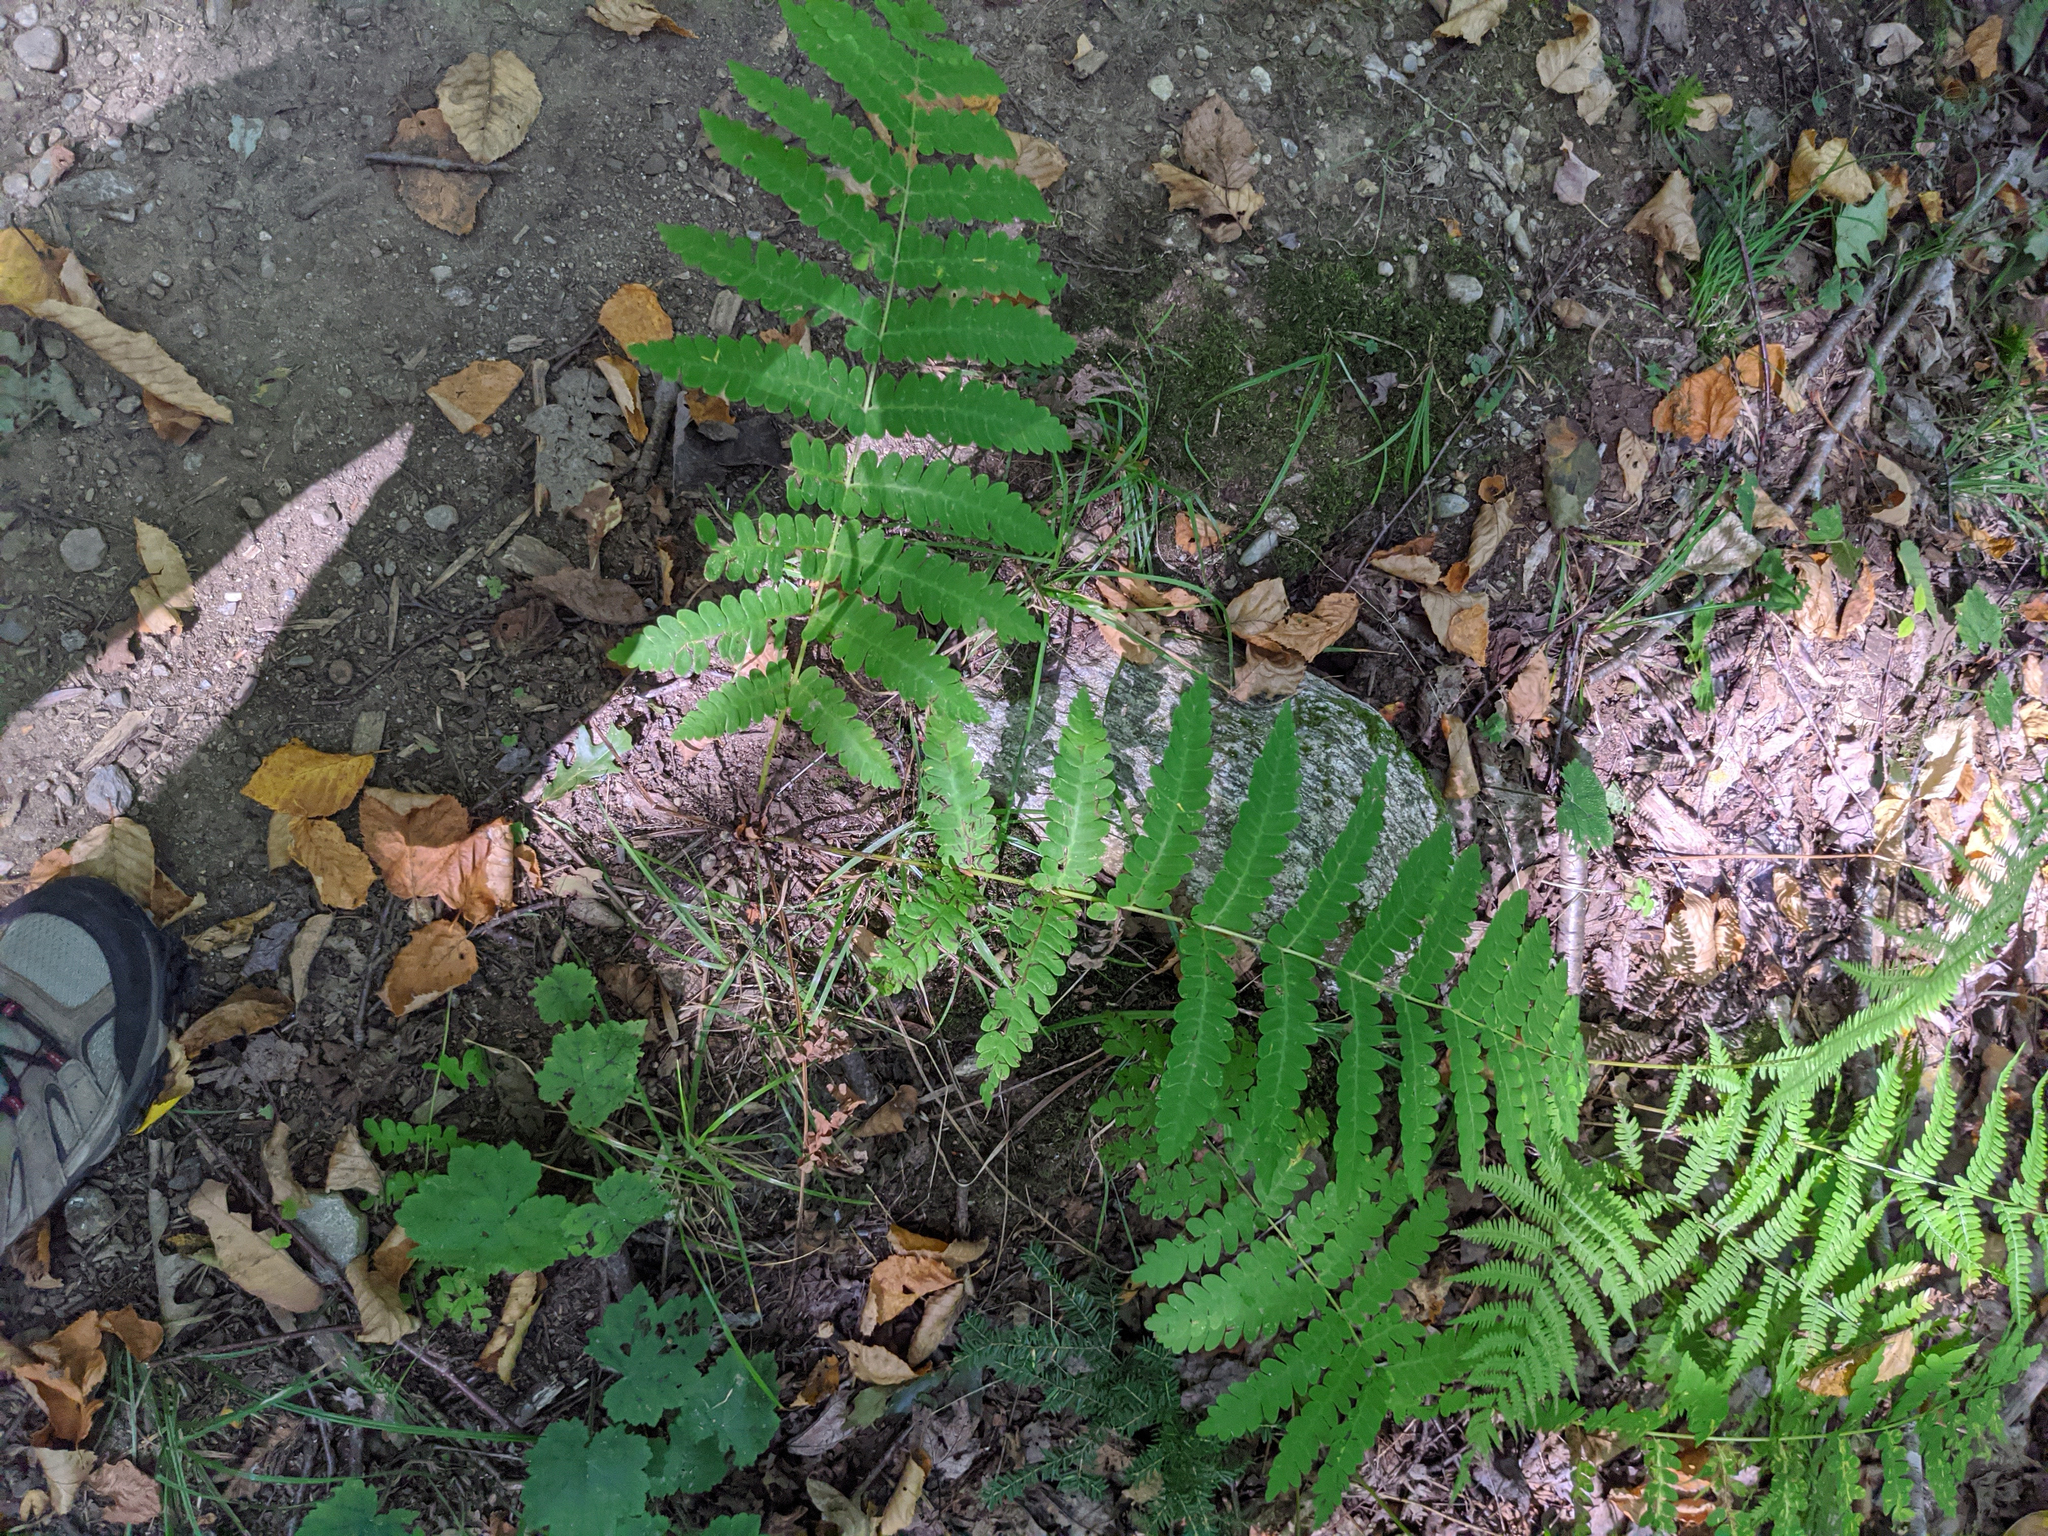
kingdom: Plantae
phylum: Tracheophyta
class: Polypodiopsida
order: Osmundales
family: Osmundaceae
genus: Claytosmunda
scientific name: Claytosmunda claytoniana
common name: Clayton's fern
